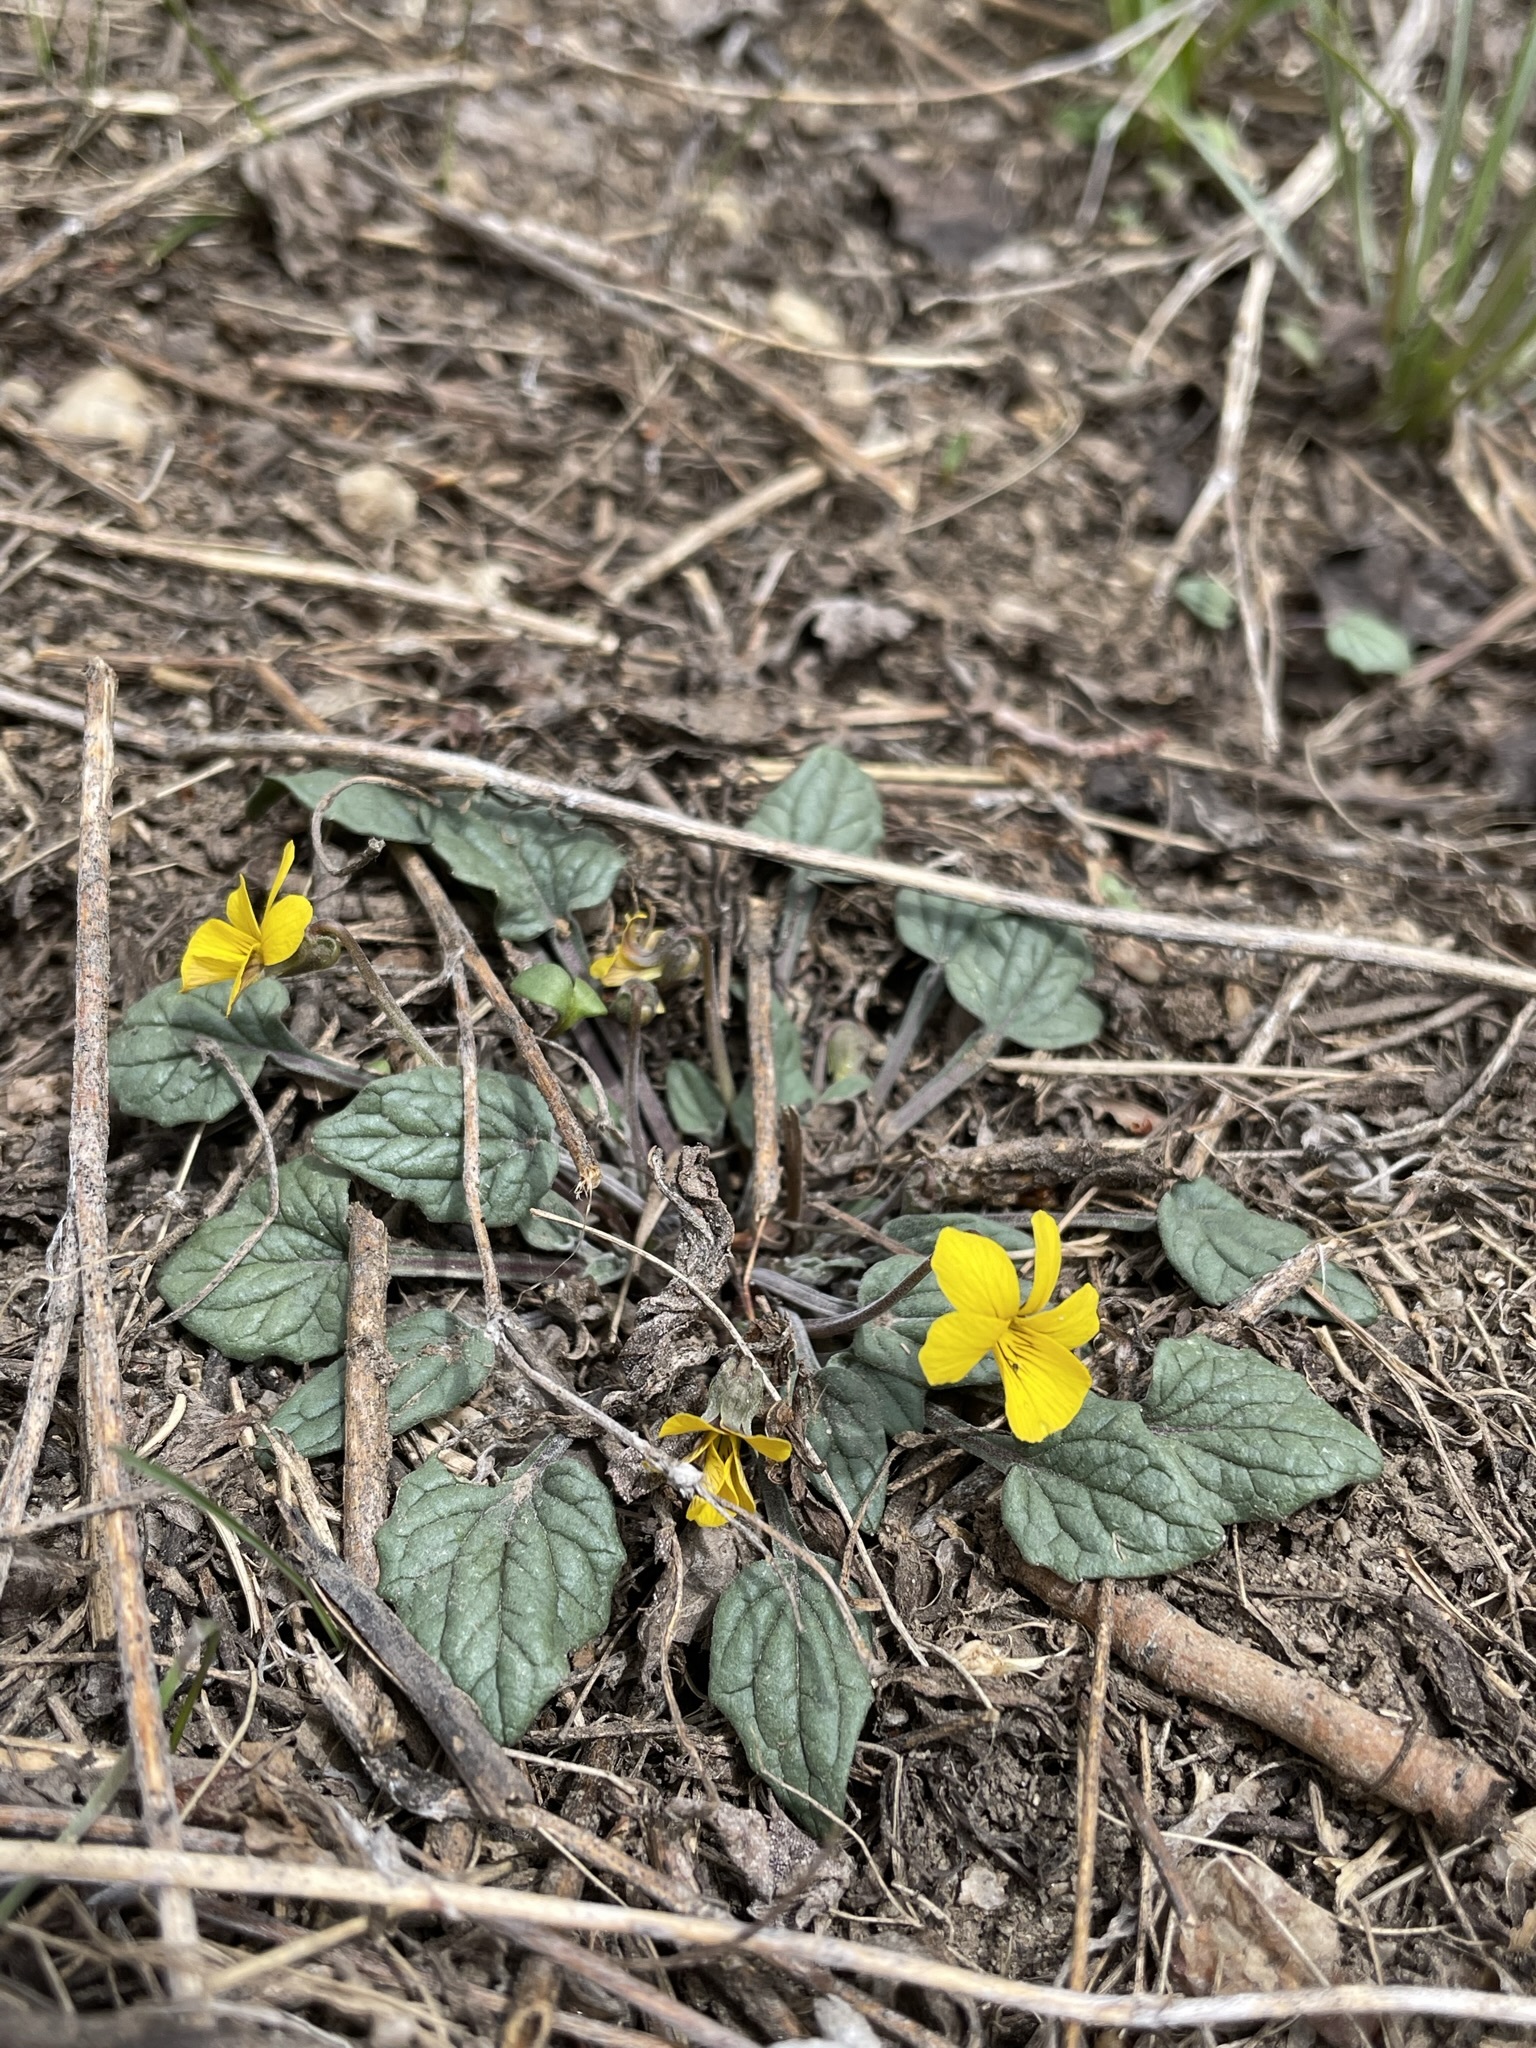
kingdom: Plantae
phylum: Tracheophyta
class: Magnoliopsida
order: Malpighiales
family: Violaceae
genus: Viola
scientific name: Viola purpurea
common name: Pine violet
